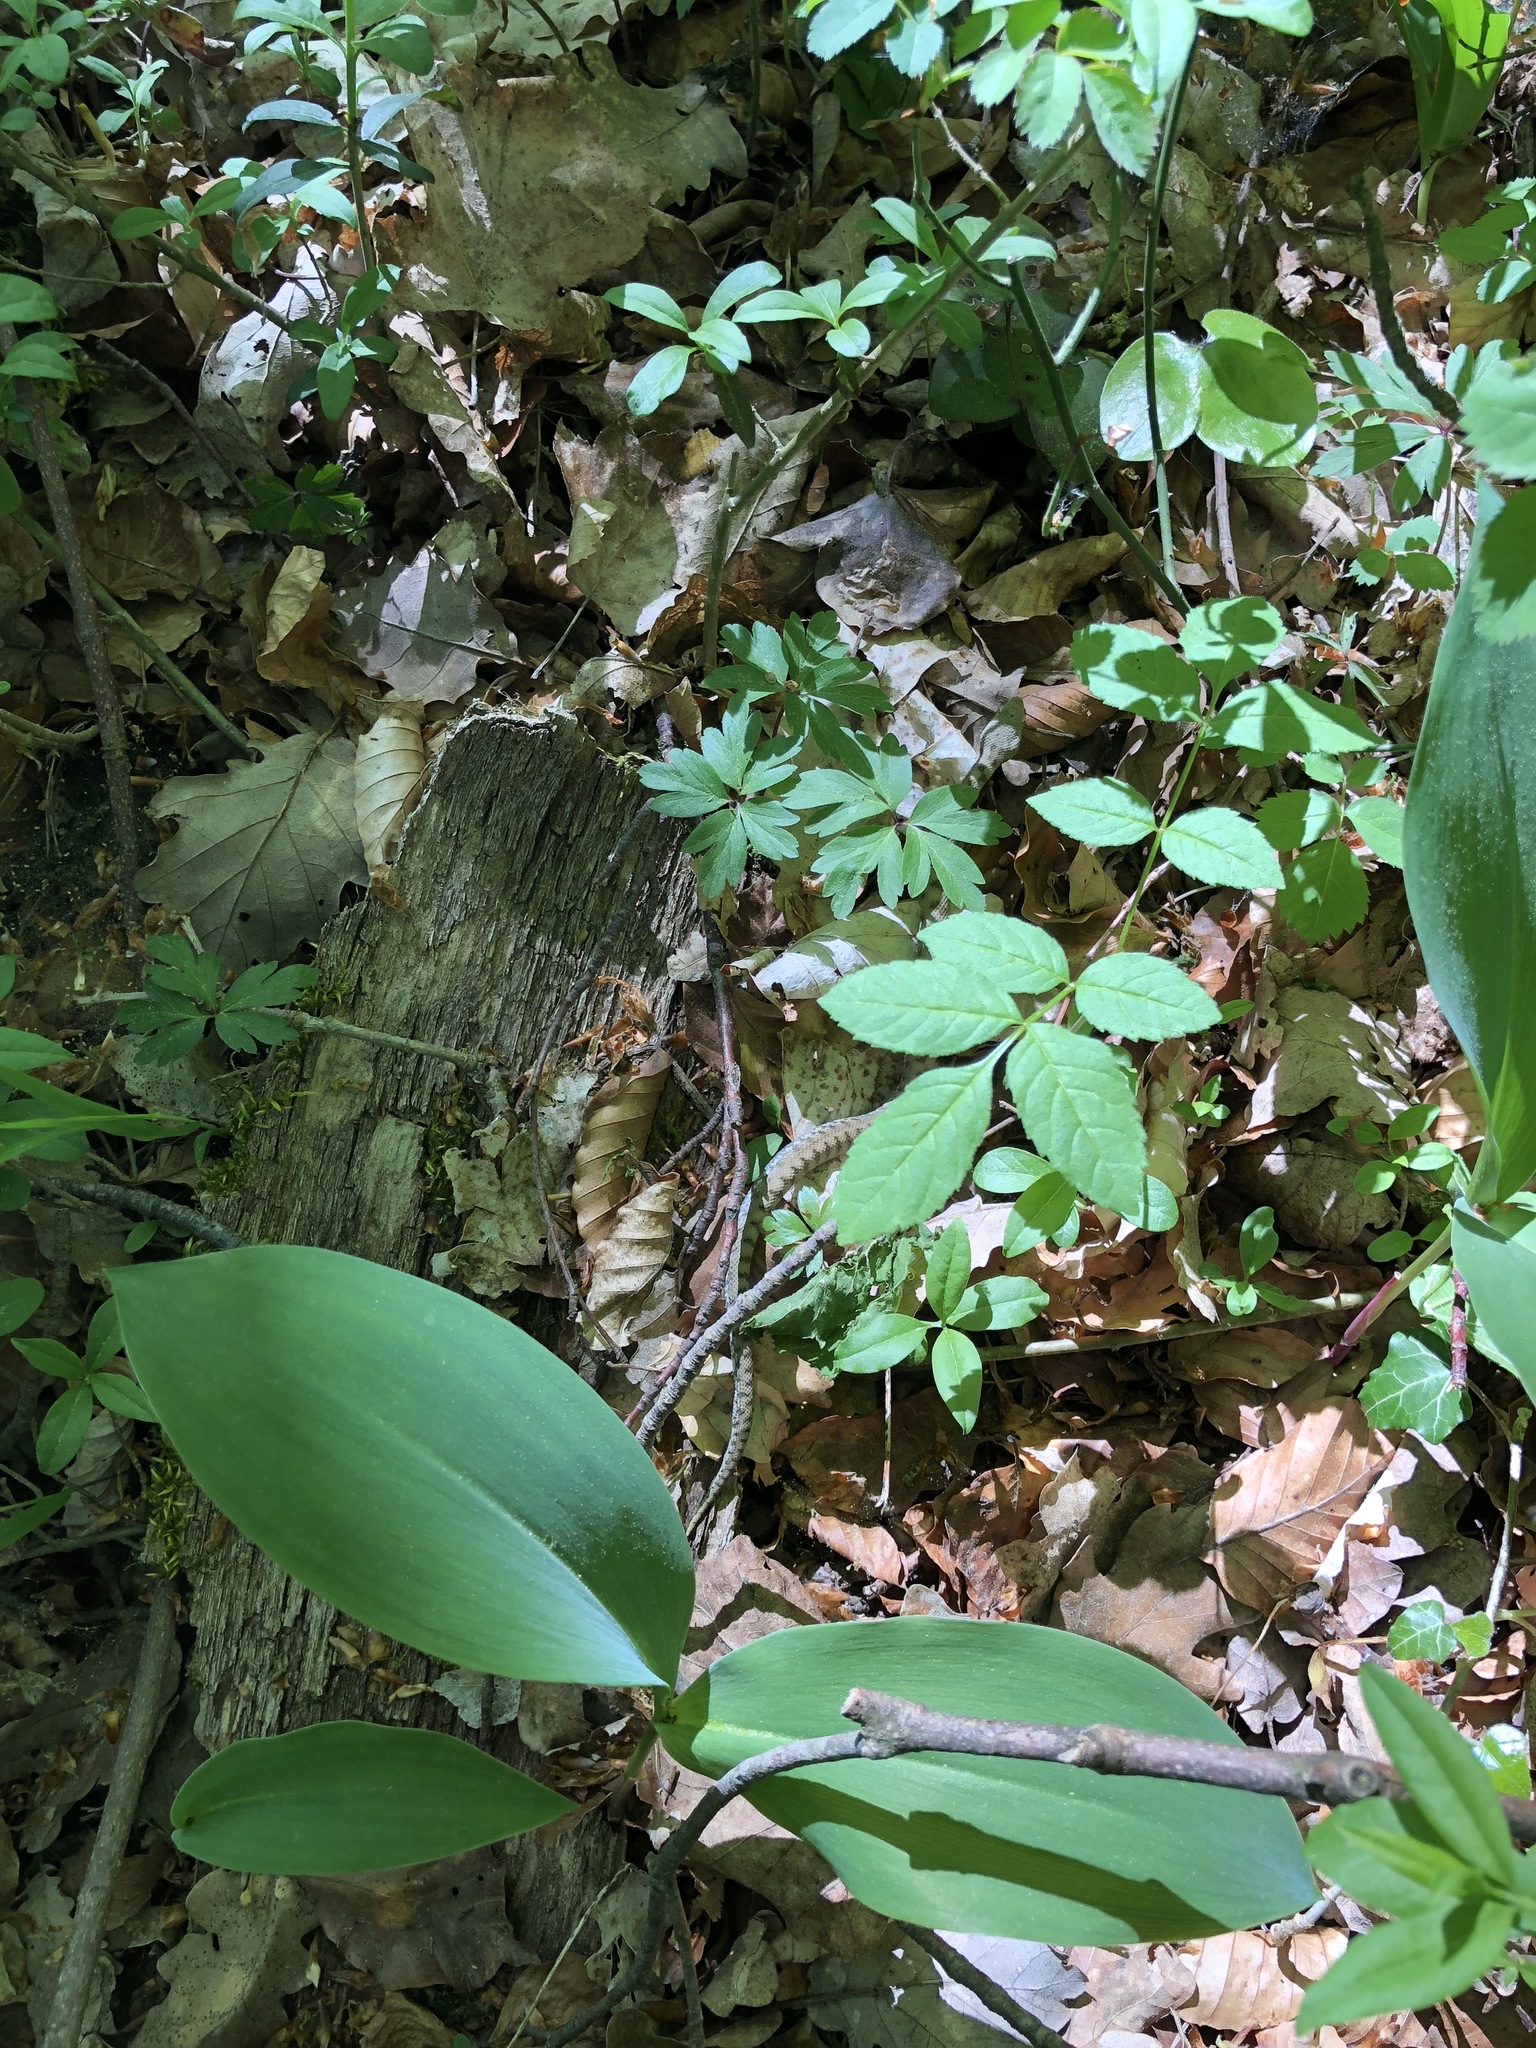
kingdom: Animalia
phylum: Chordata
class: Squamata
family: Viperidae
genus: Vipera
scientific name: Vipera aspis
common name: Asp viper
